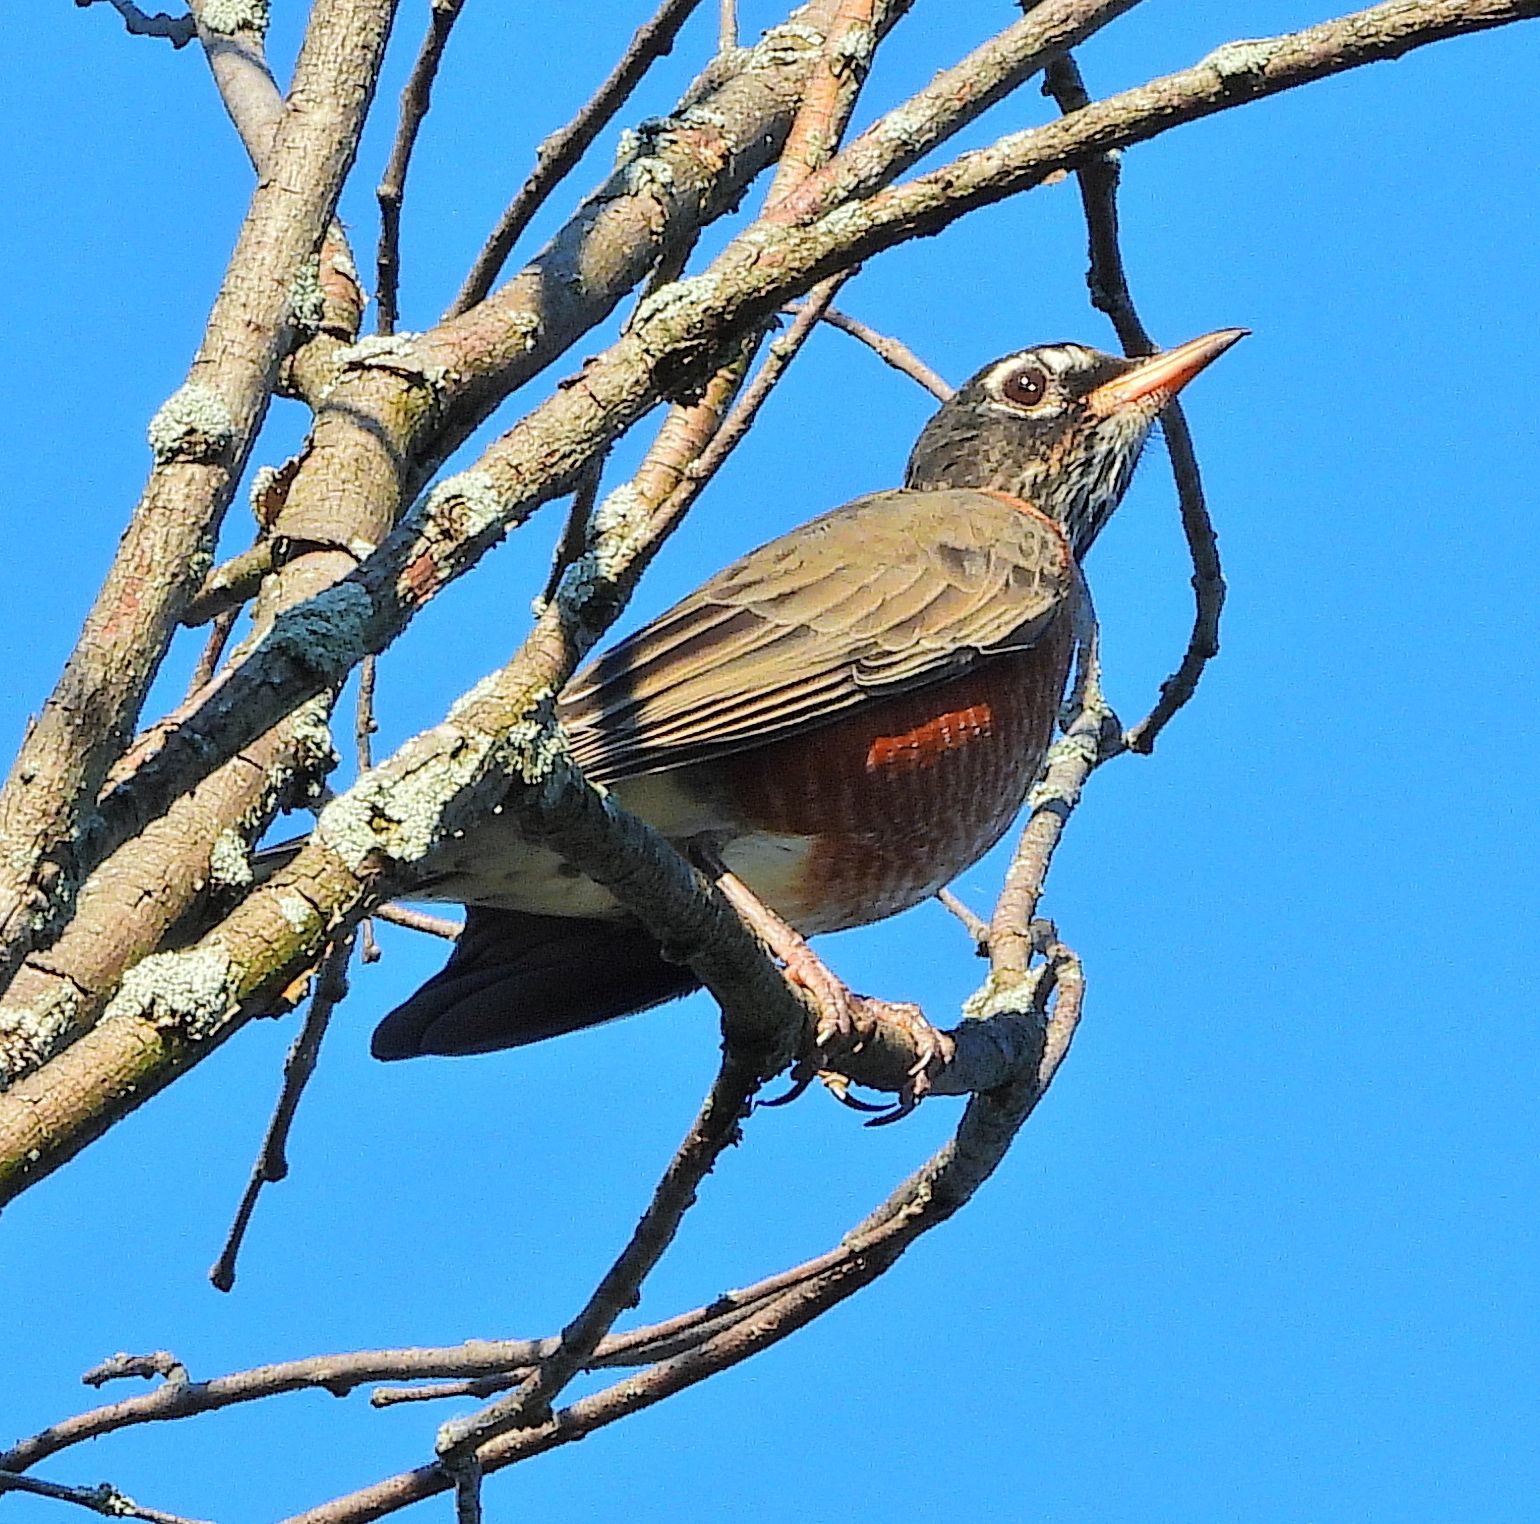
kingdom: Animalia
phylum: Chordata
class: Aves
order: Passeriformes
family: Turdidae
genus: Turdus
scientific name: Turdus migratorius
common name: American robin
